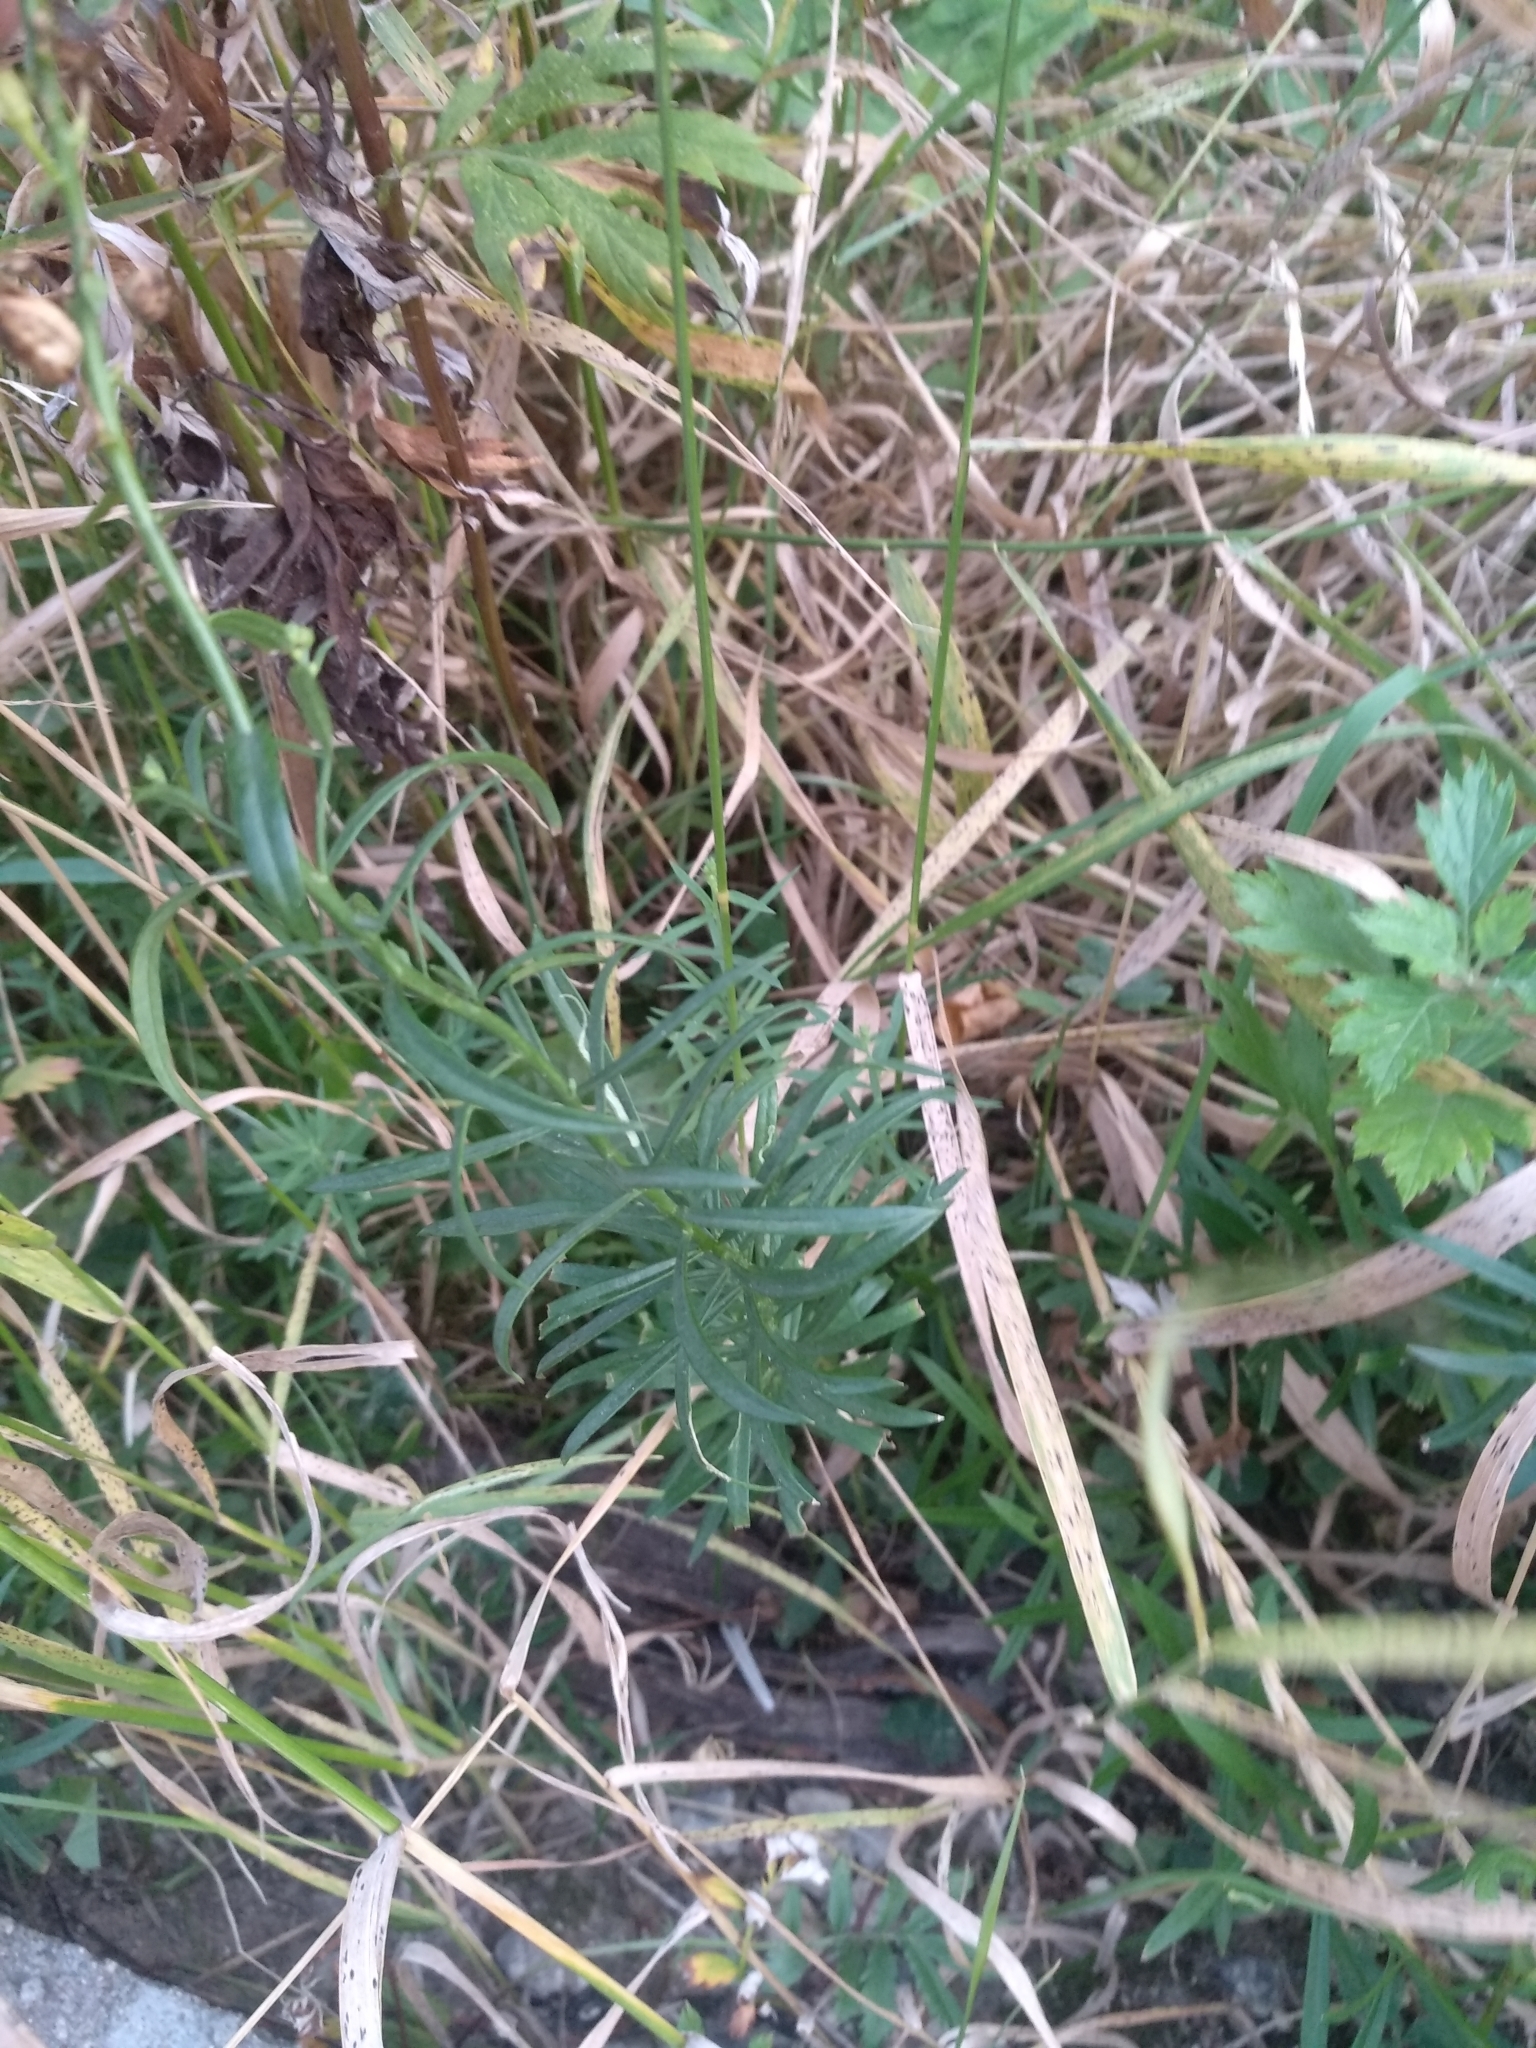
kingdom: Plantae
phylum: Tracheophyta
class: Magnoliopsida
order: Lamiales
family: Plantaginaceae
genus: Linaria
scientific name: Linaria vulgaris
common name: Butter and eggs
